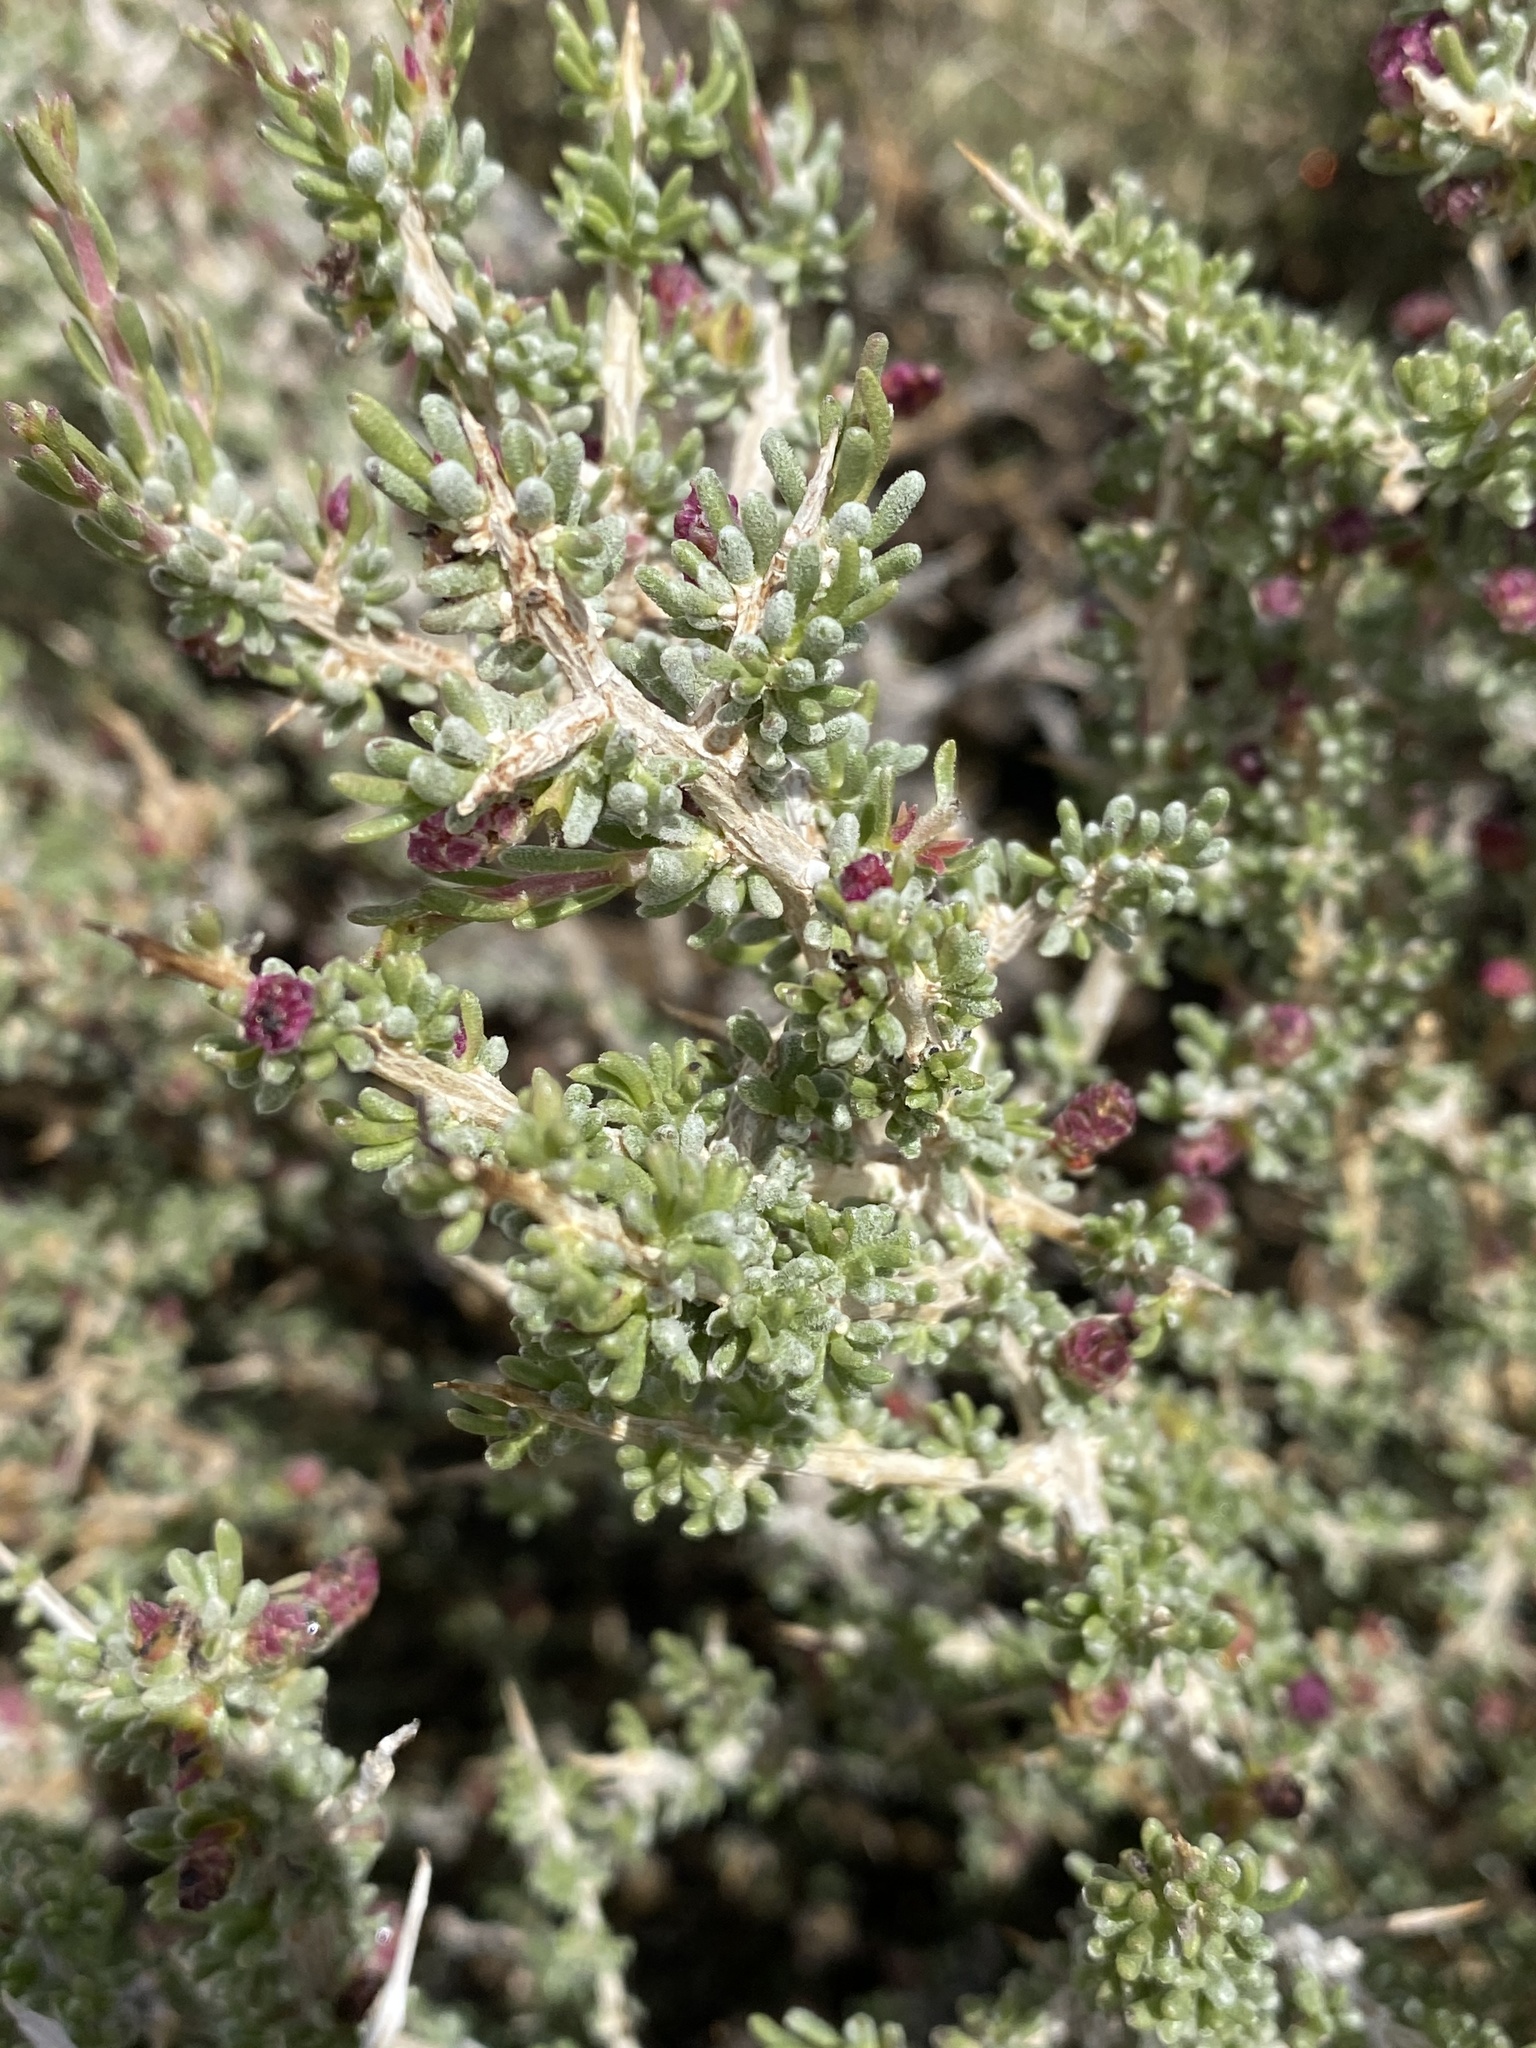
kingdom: Plantae
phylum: Tracheophyta
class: Magnoliopsida
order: Caryophyllales
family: Sarcobataceae
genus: Sarcobatus
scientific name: Sarcobatus baileyi
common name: Bailey greasewood
